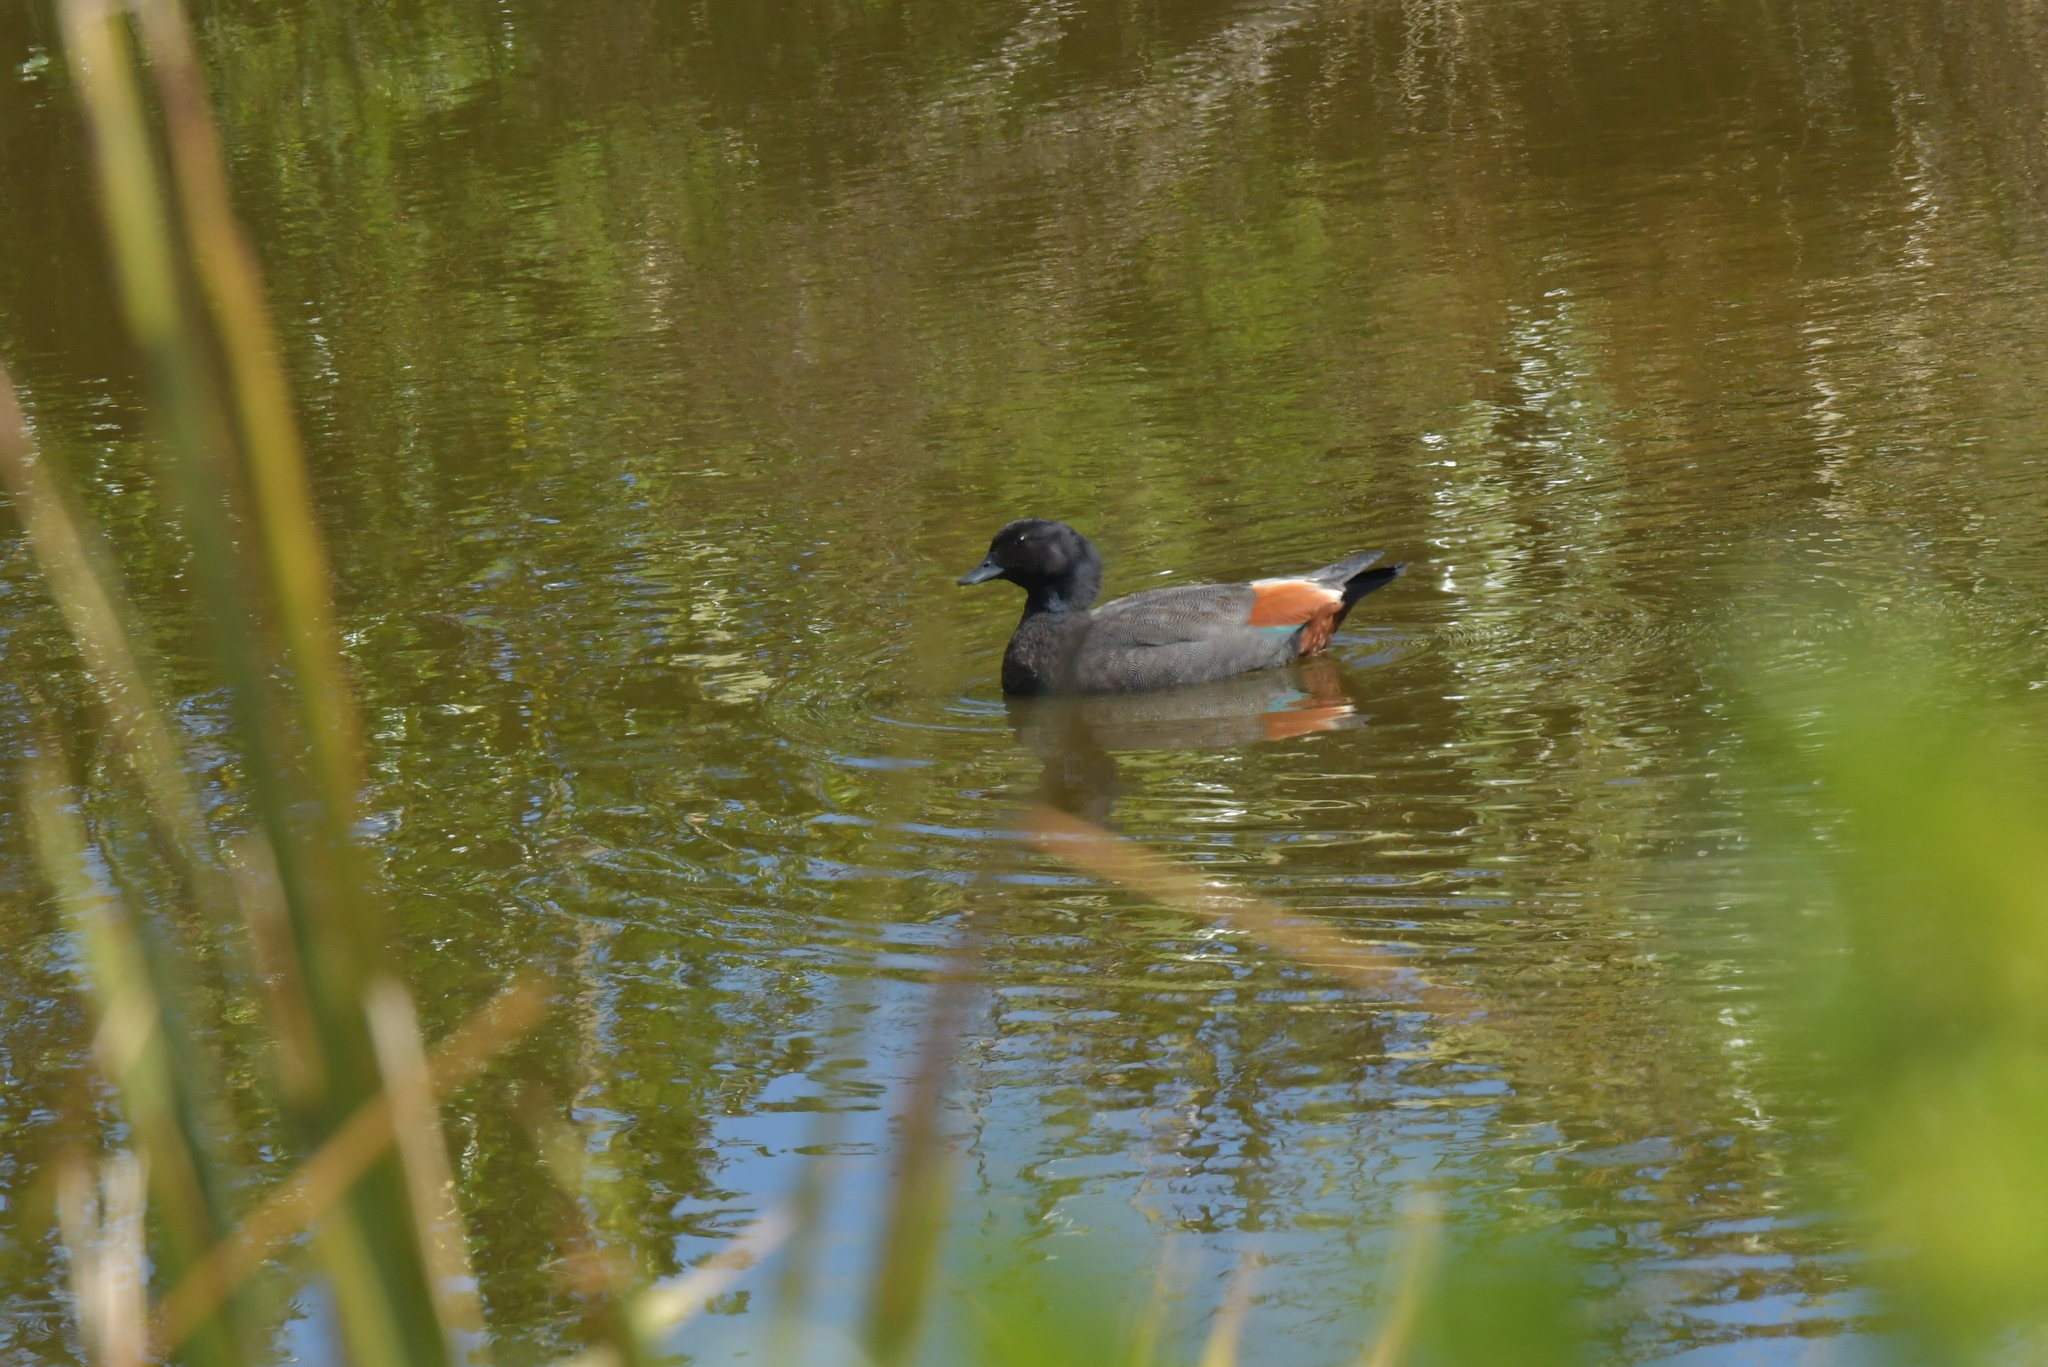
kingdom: Animalia
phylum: Chordata
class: Aves
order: Anseriformes
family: Anatidae
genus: Tadorna
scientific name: Tadorna variegata
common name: Paradise shelduck
